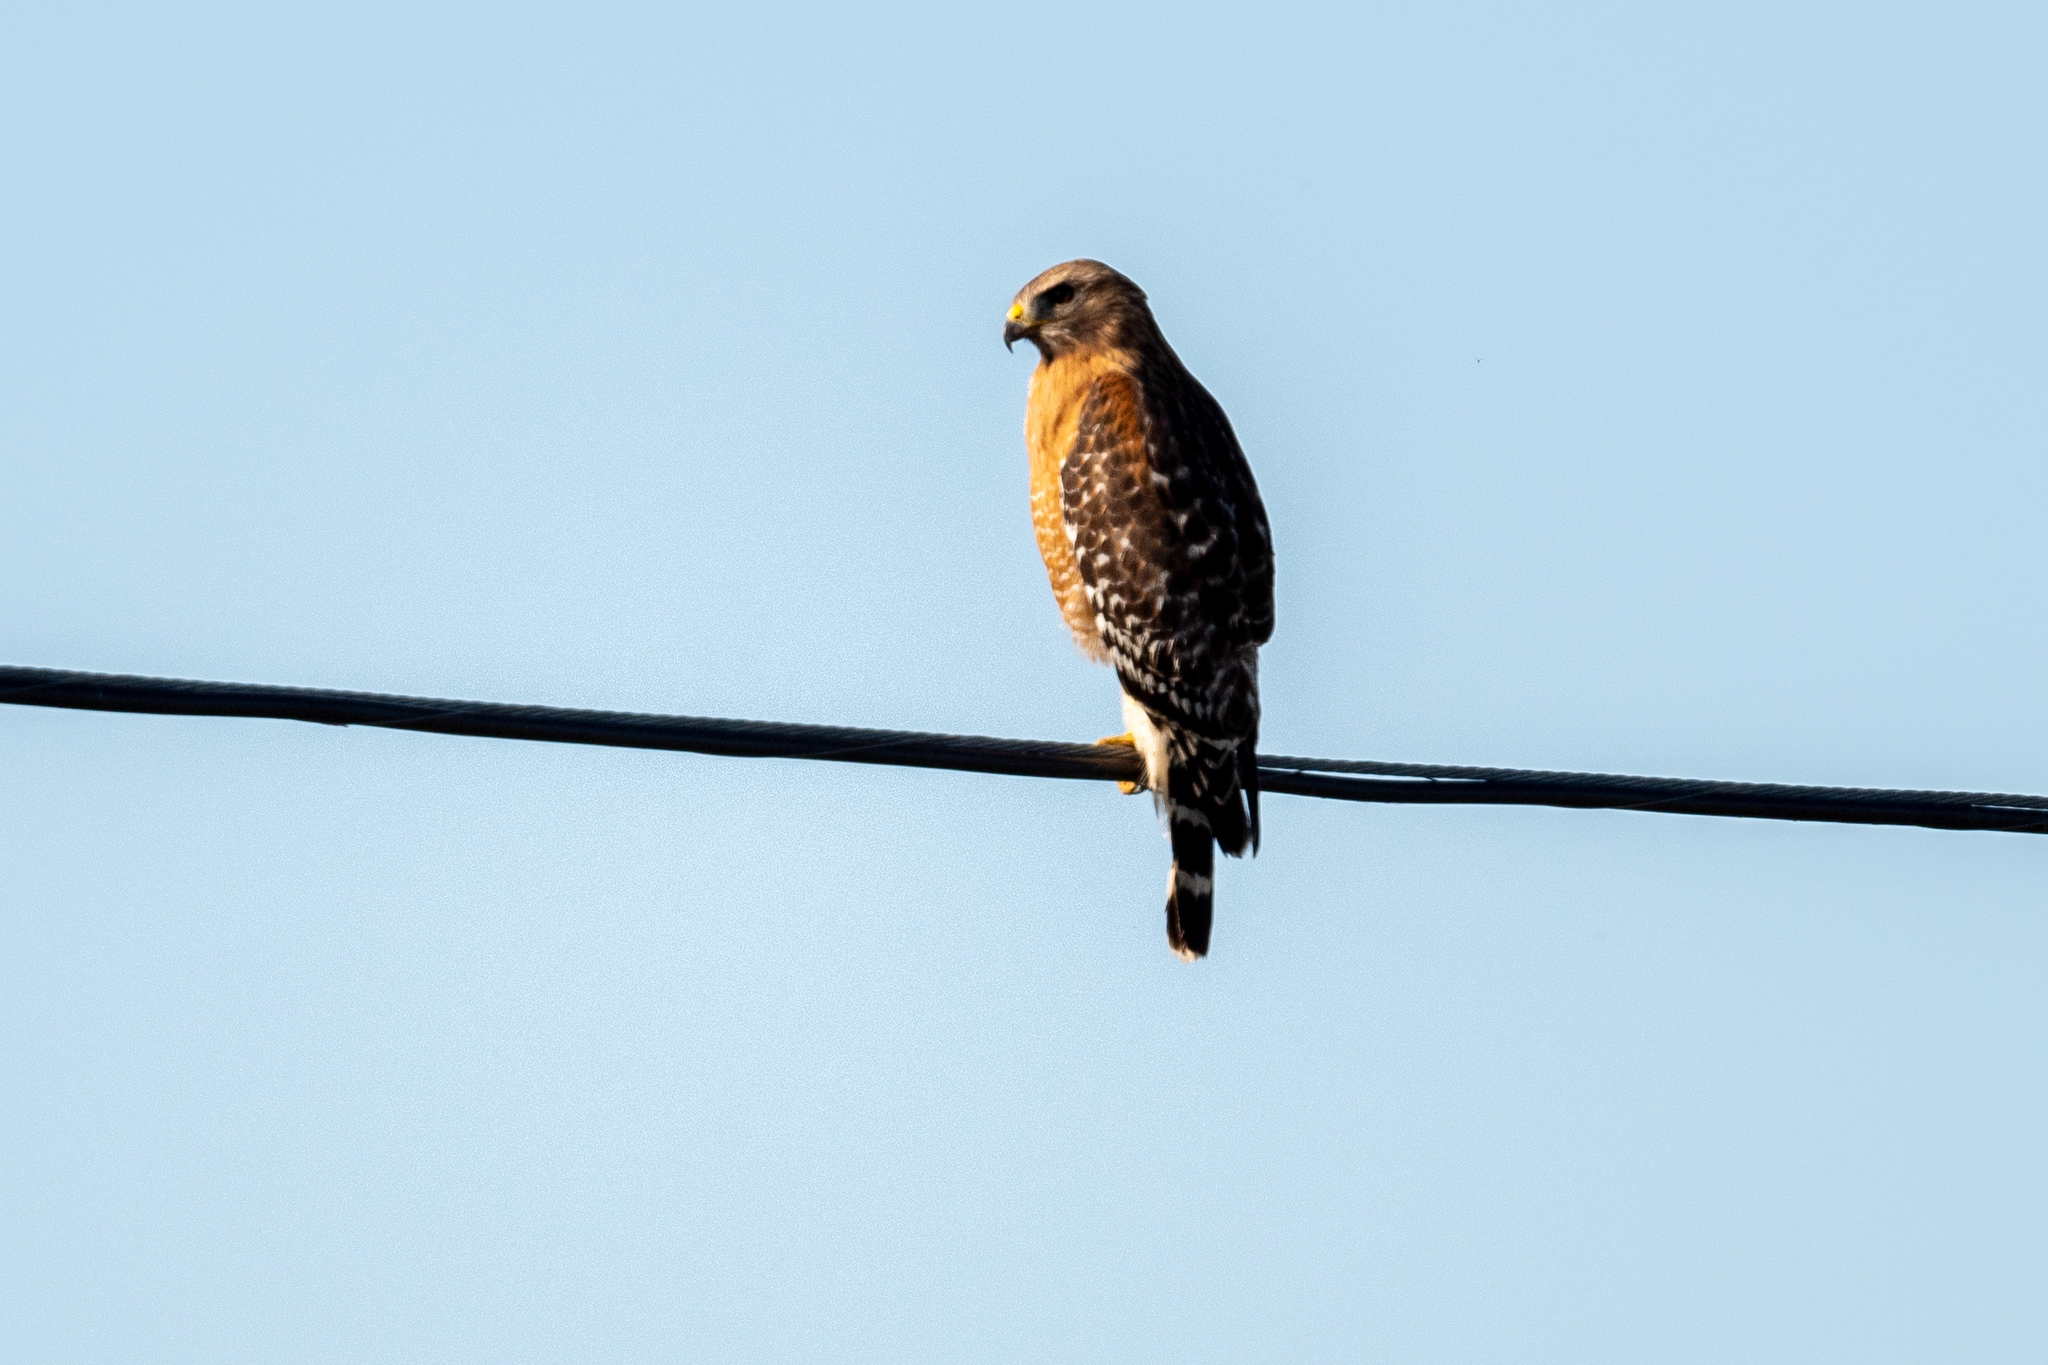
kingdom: Animalia
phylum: Chordata
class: Aves
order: Accipitriformes
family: Accipitridae
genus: Buteo
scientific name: Buteo lineatus
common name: Red-shouldered hawk
